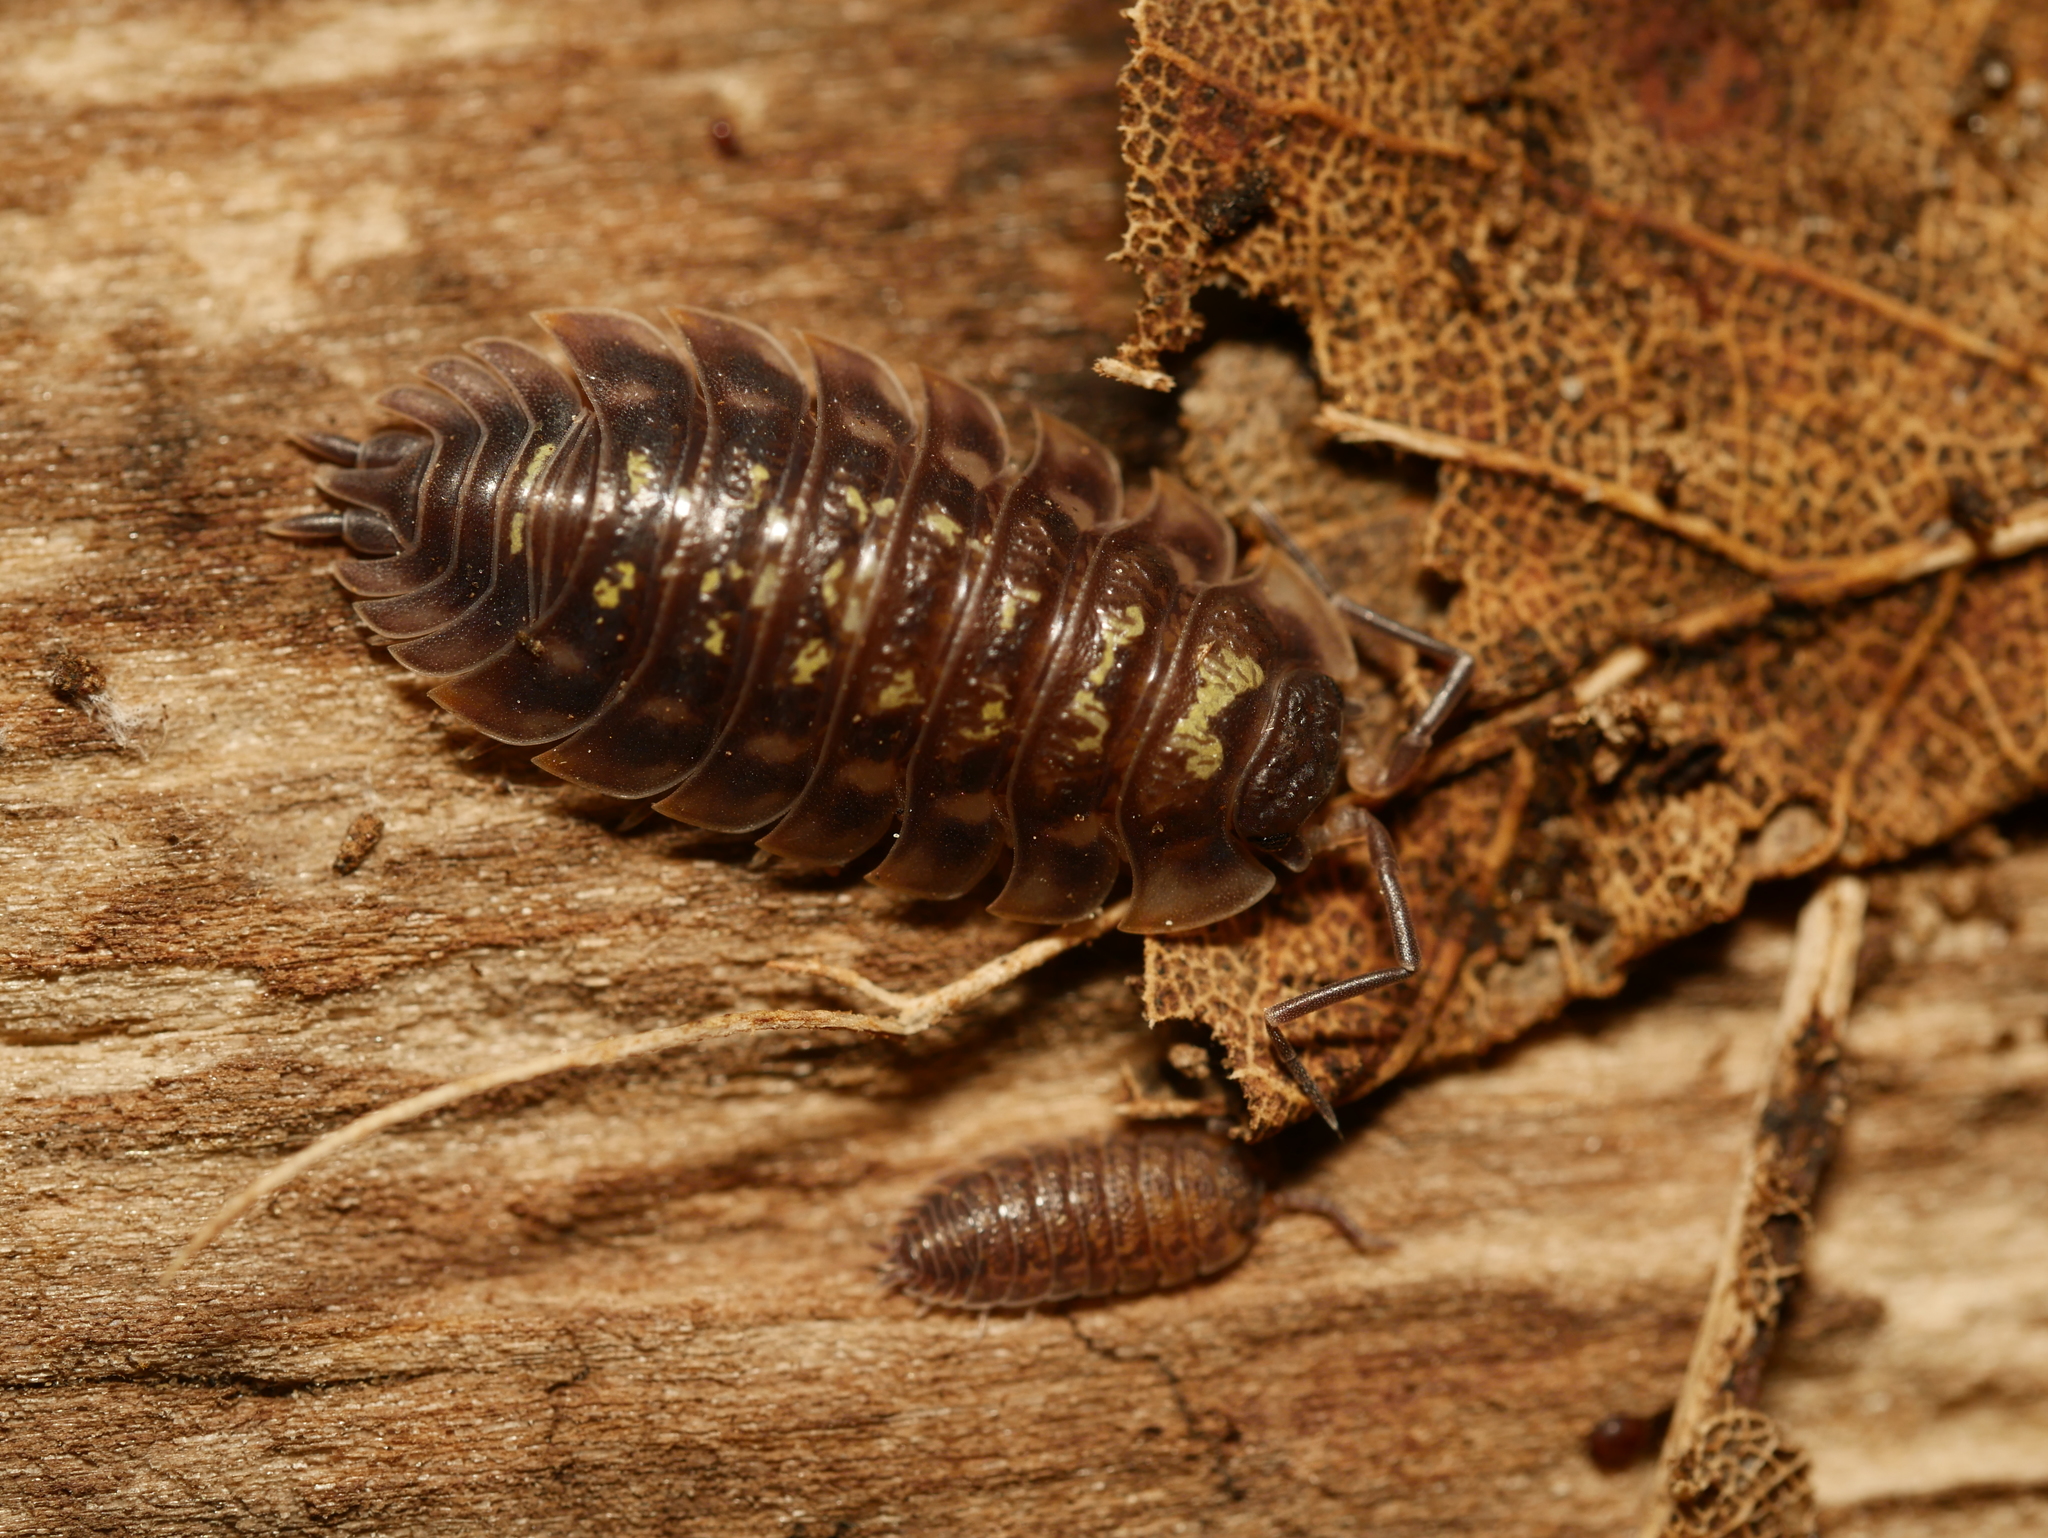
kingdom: Animalia
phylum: Arthropoda
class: Malacostraca
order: Isopoda
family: Oniscidae
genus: Oniscus
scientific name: Oniscus asellus
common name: Common shiny woodlouse
